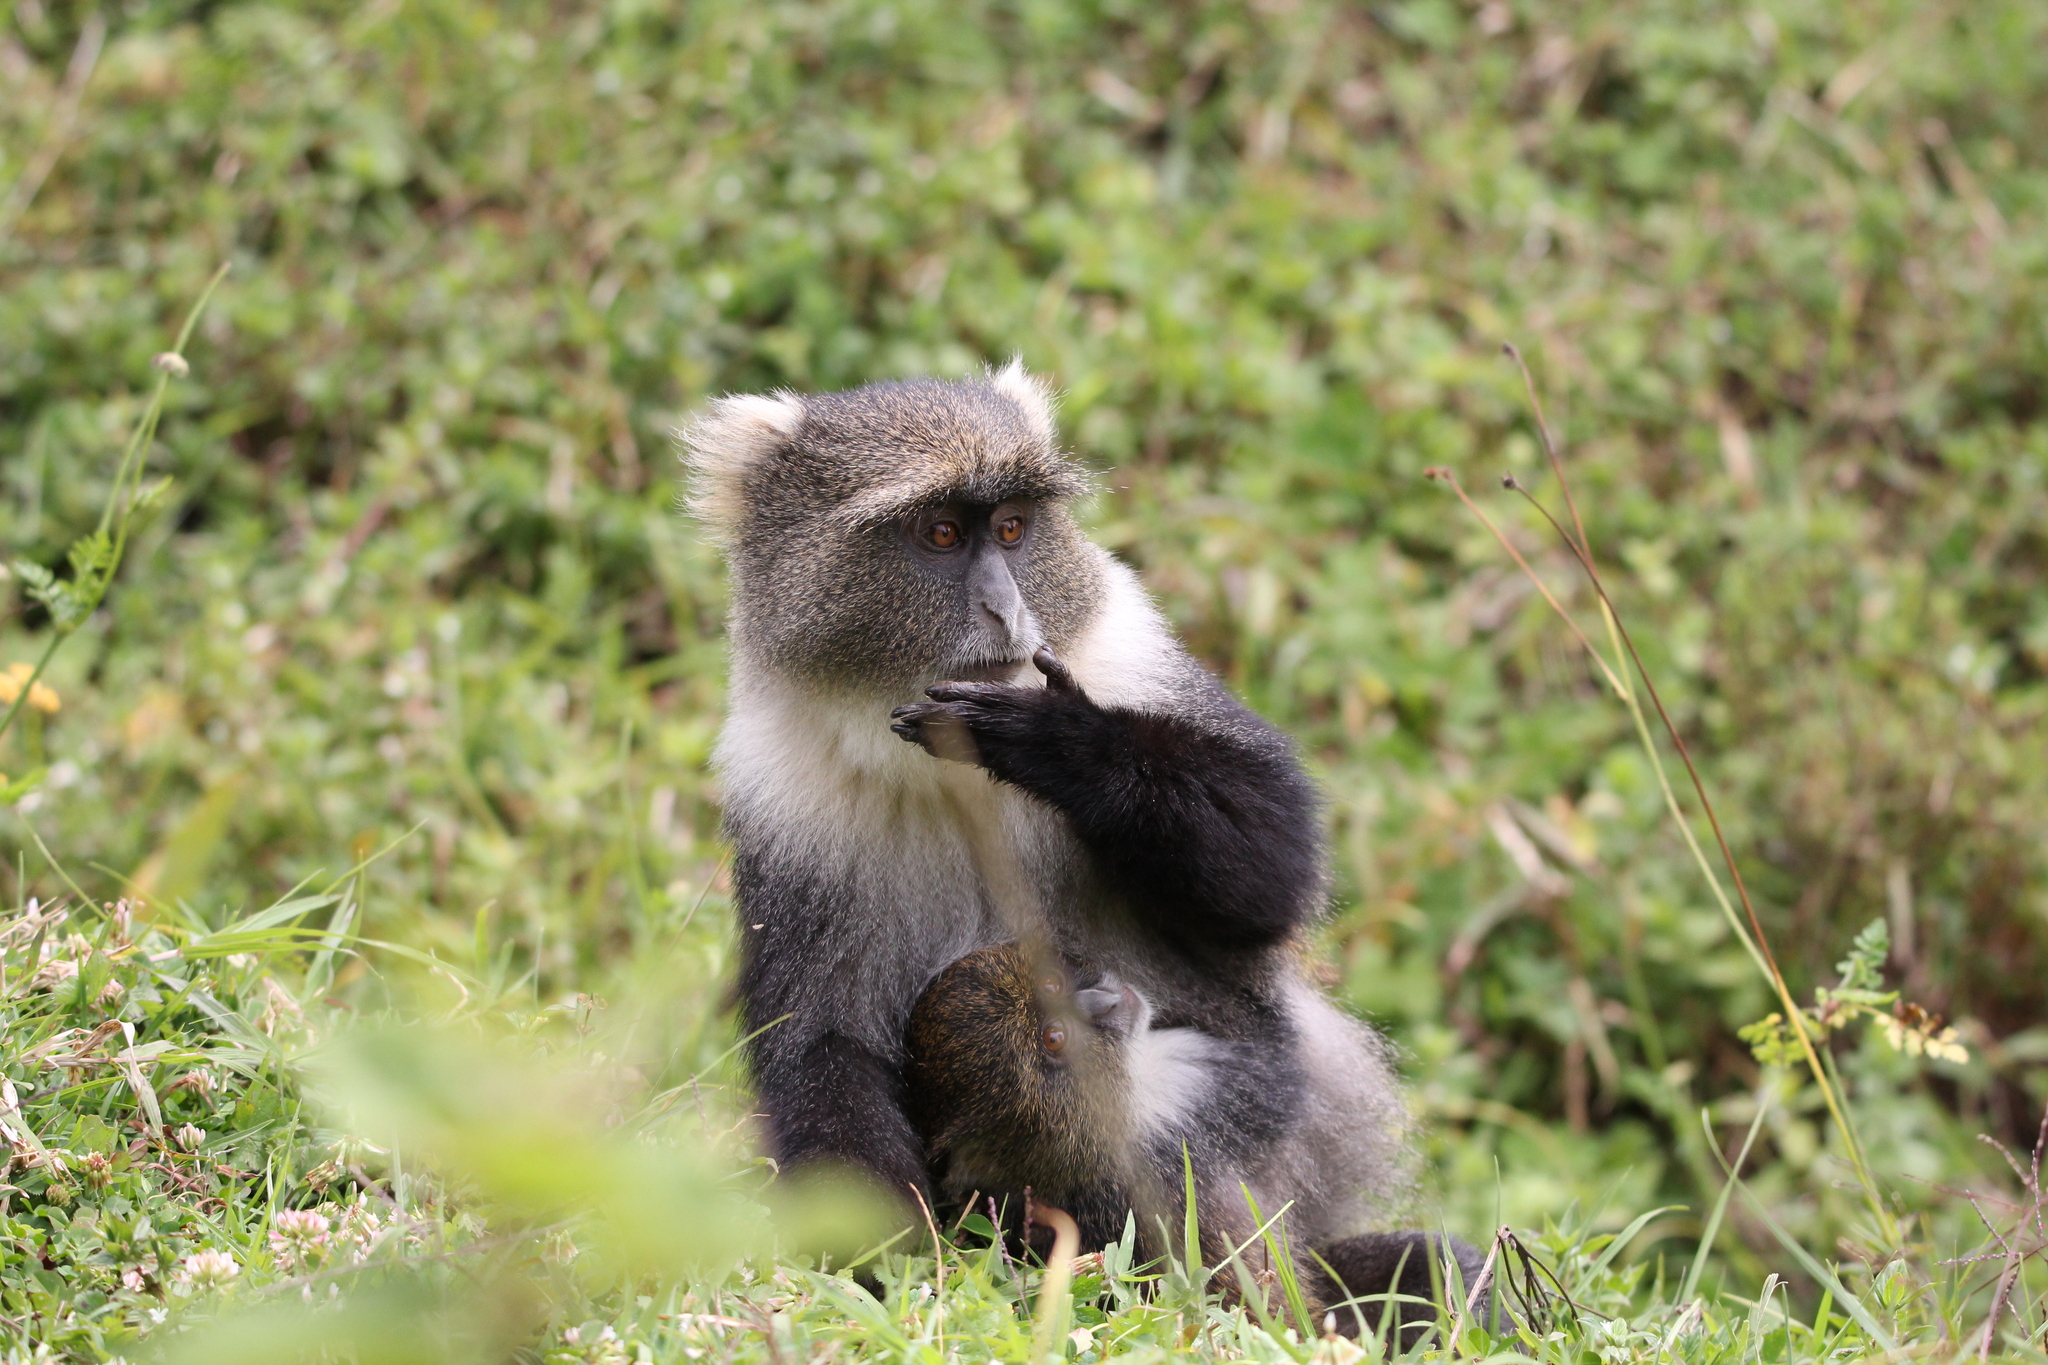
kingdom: Animalia
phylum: Chordata
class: Mammalia
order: Primates
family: Cercopithecidae
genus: Cercopithecus
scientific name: Cercopithecus mitis
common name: Blue monkey
